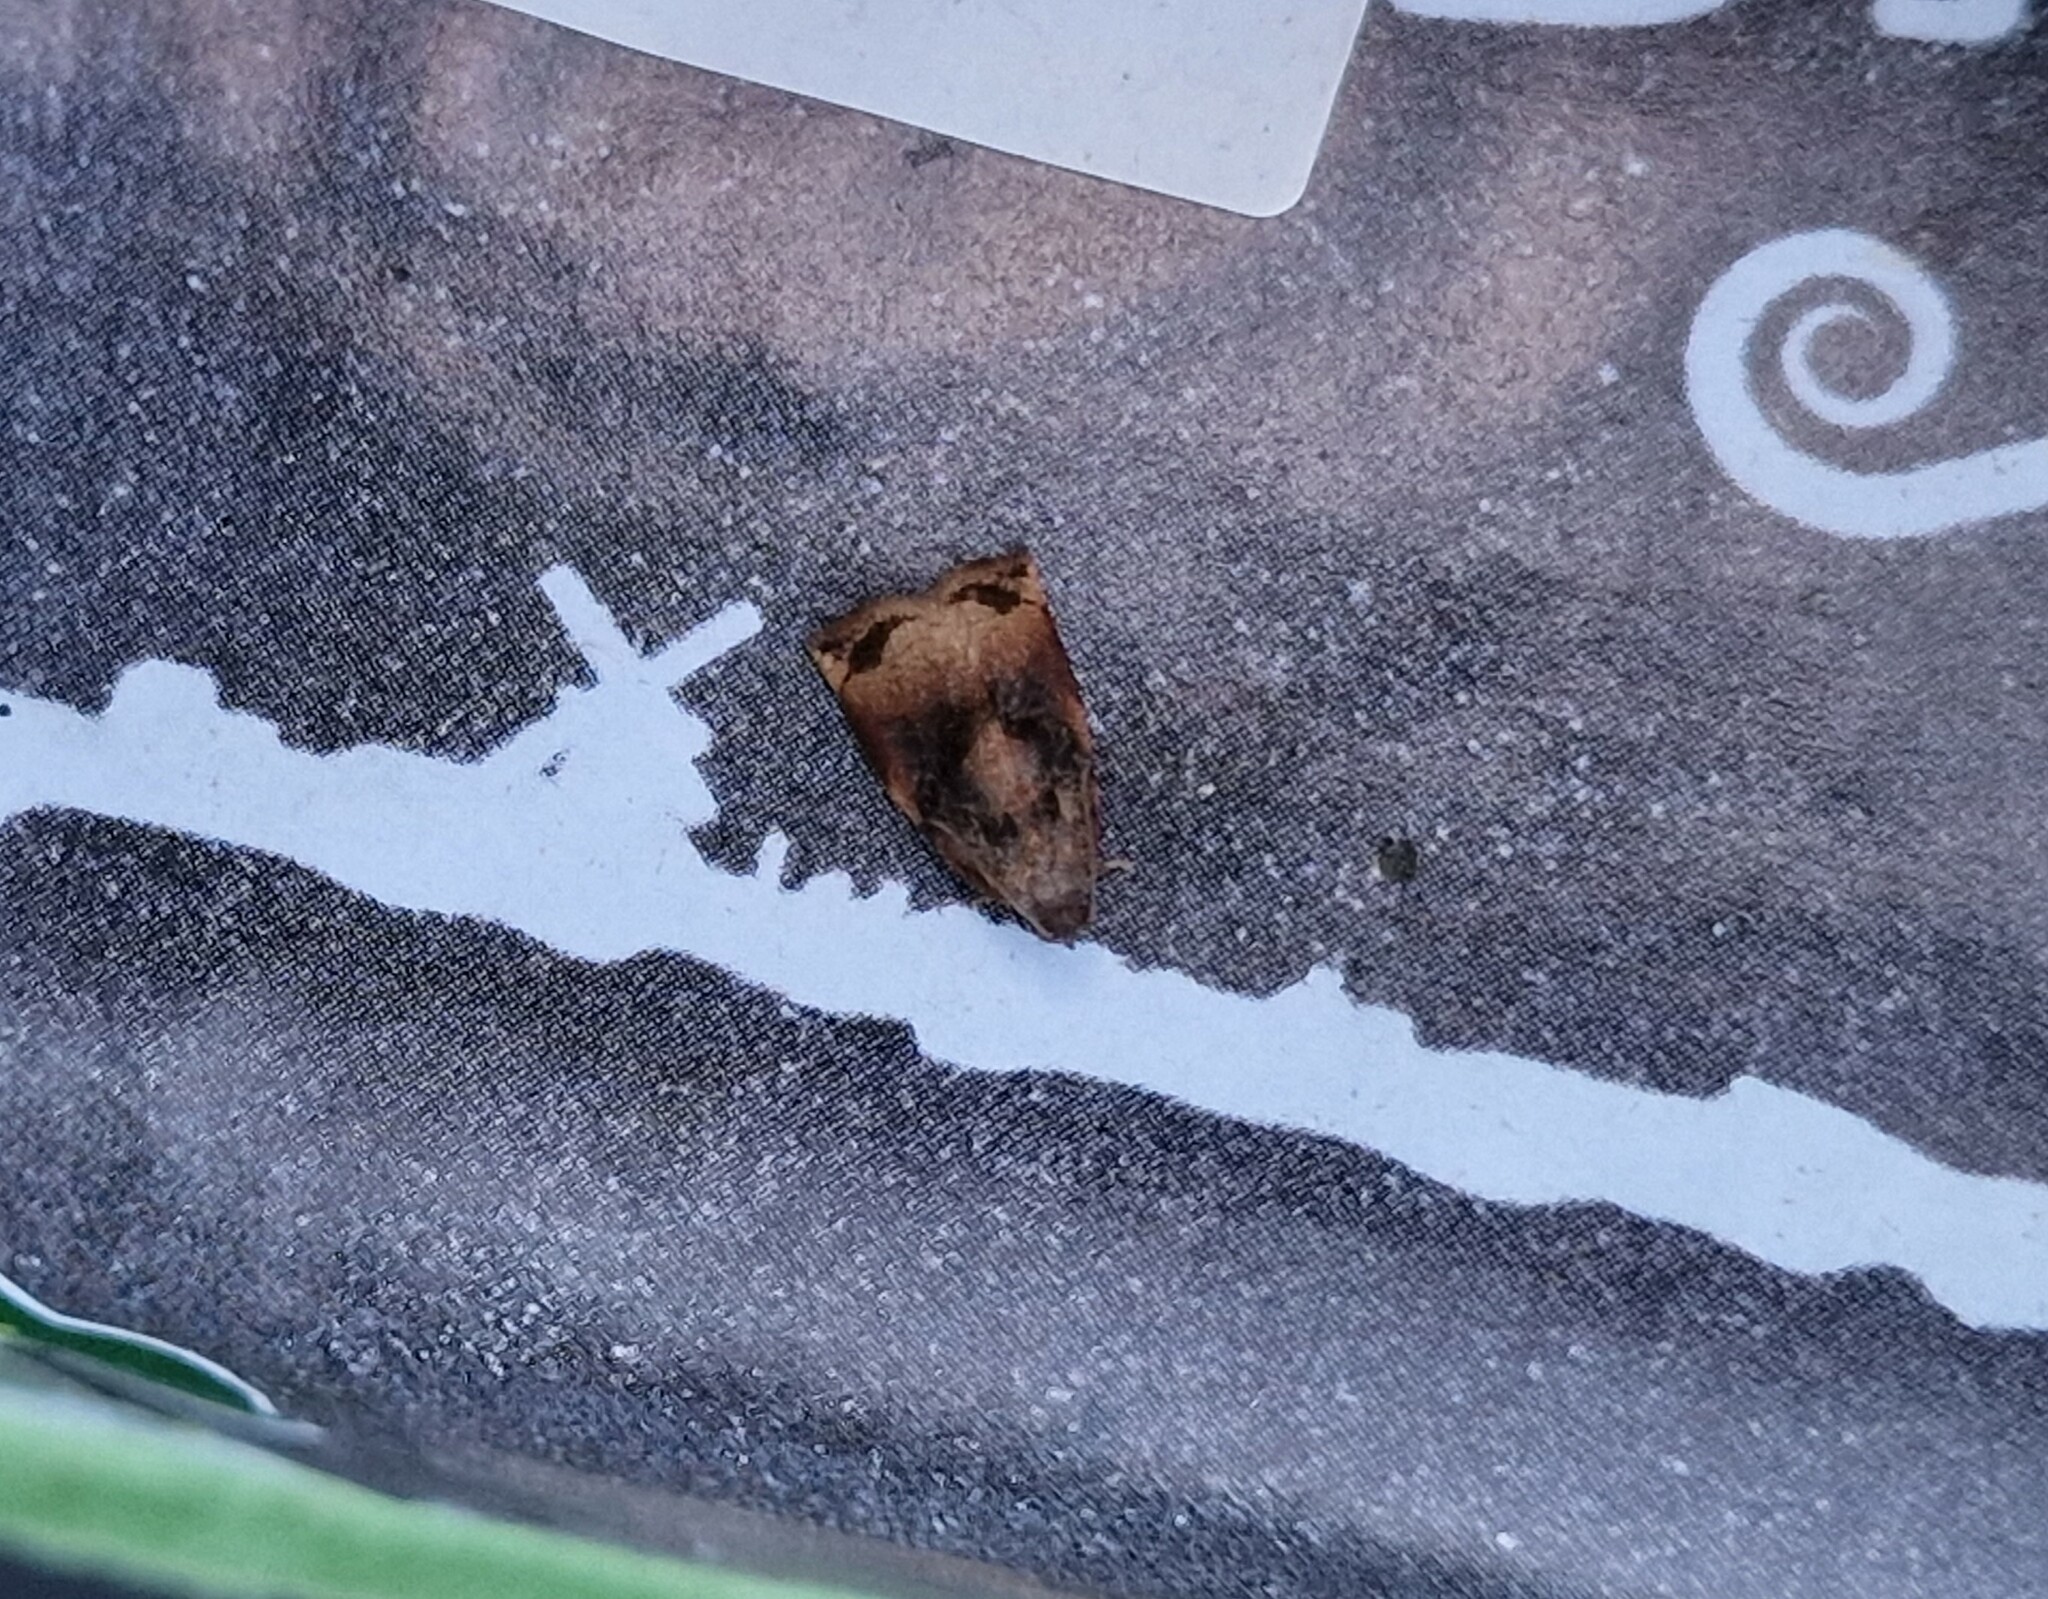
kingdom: Animalia
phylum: Arthropoda
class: Insecta
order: Lepidoptera
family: Tortricidae
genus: Archips
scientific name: Archips podana
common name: Large fruit-tree tortrix
